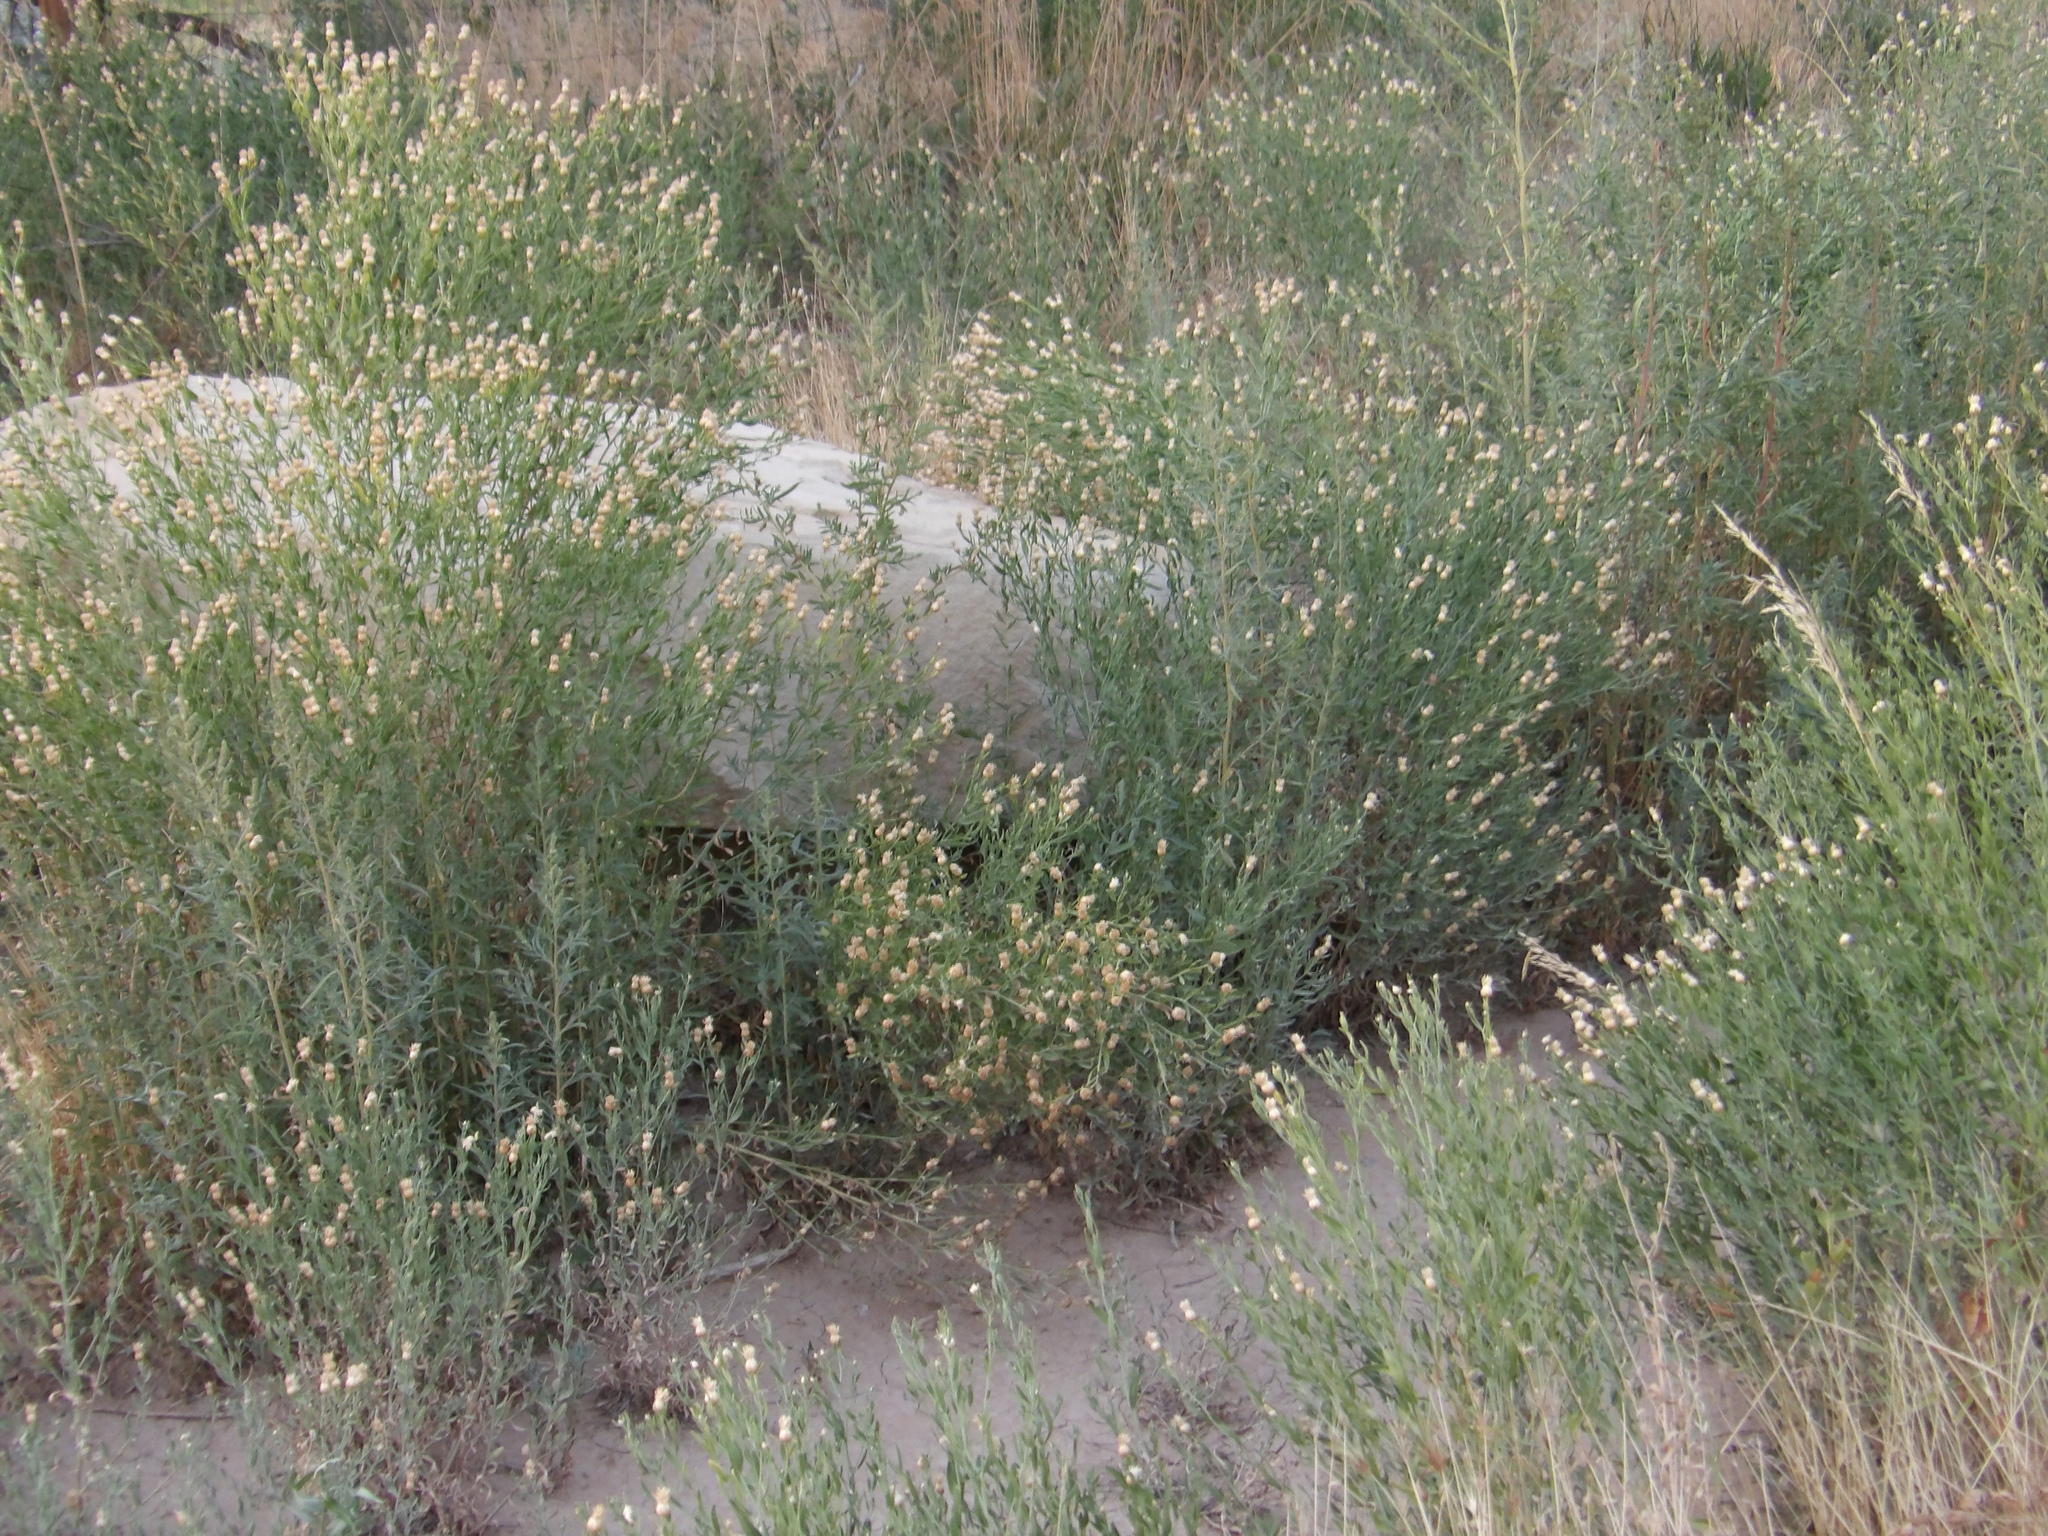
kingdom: Plantae
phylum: Tracheophyta
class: Magnoliopsida
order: Asterales
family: Asteraceae
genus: Leuzea
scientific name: Leuzea repens
